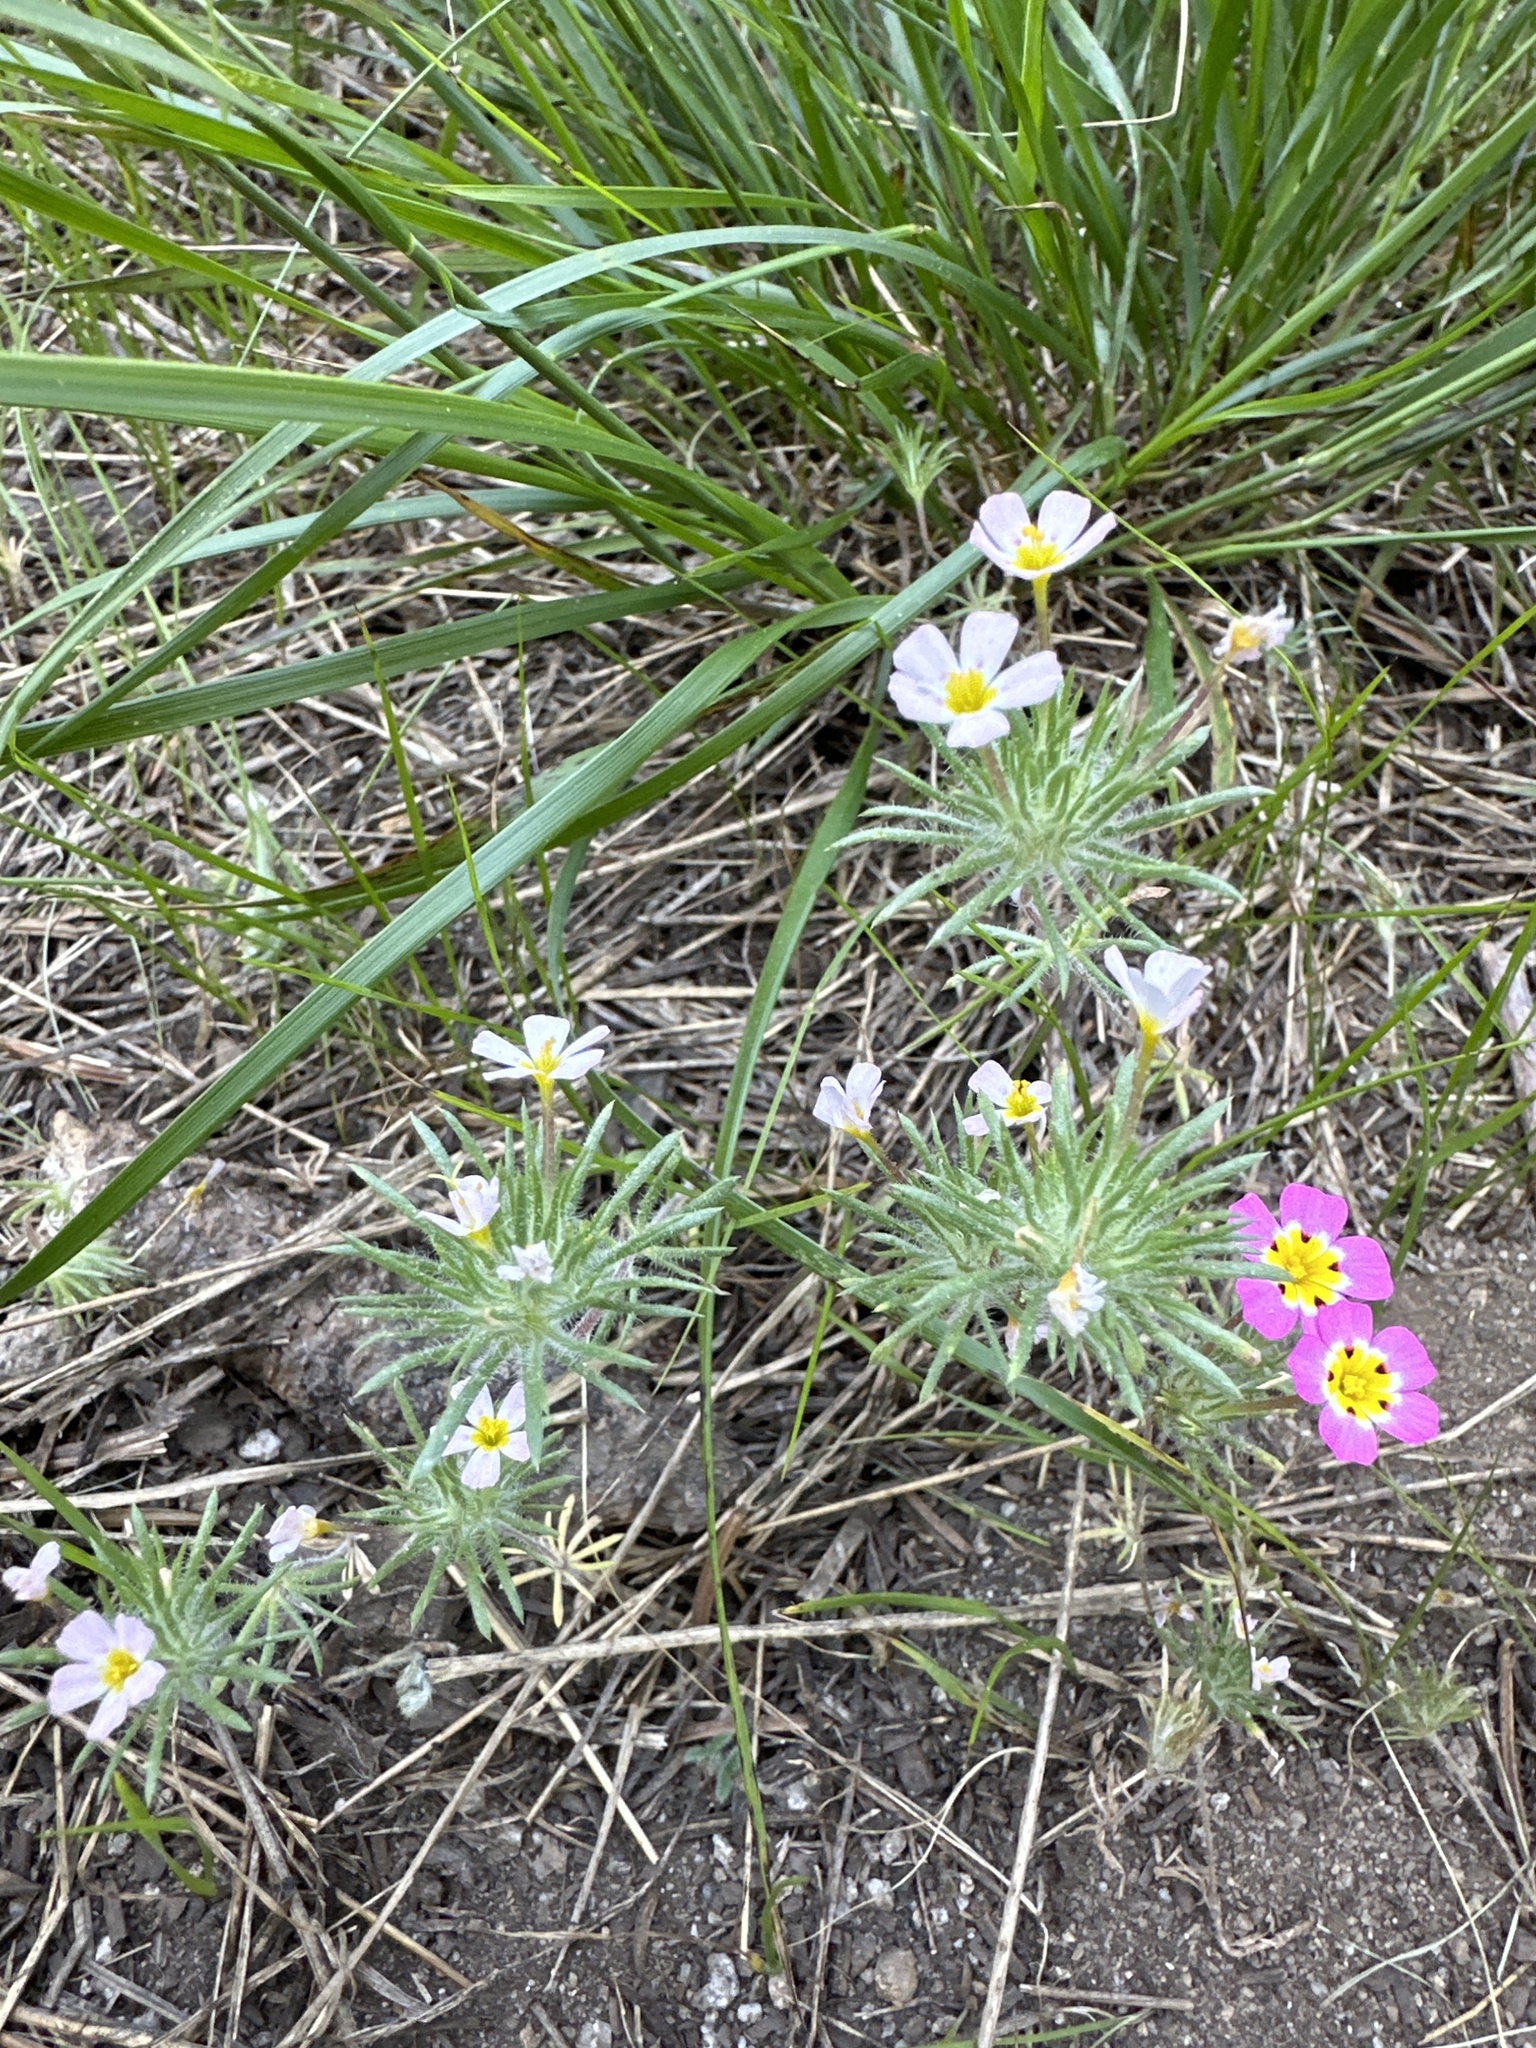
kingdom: Plantae
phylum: Tracheophyta
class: Magnoliopsida
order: Ericales
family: Polemoniaceae
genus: Leptosiphon
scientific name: Leptosiphon ciliatus
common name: Whiskerbrush
